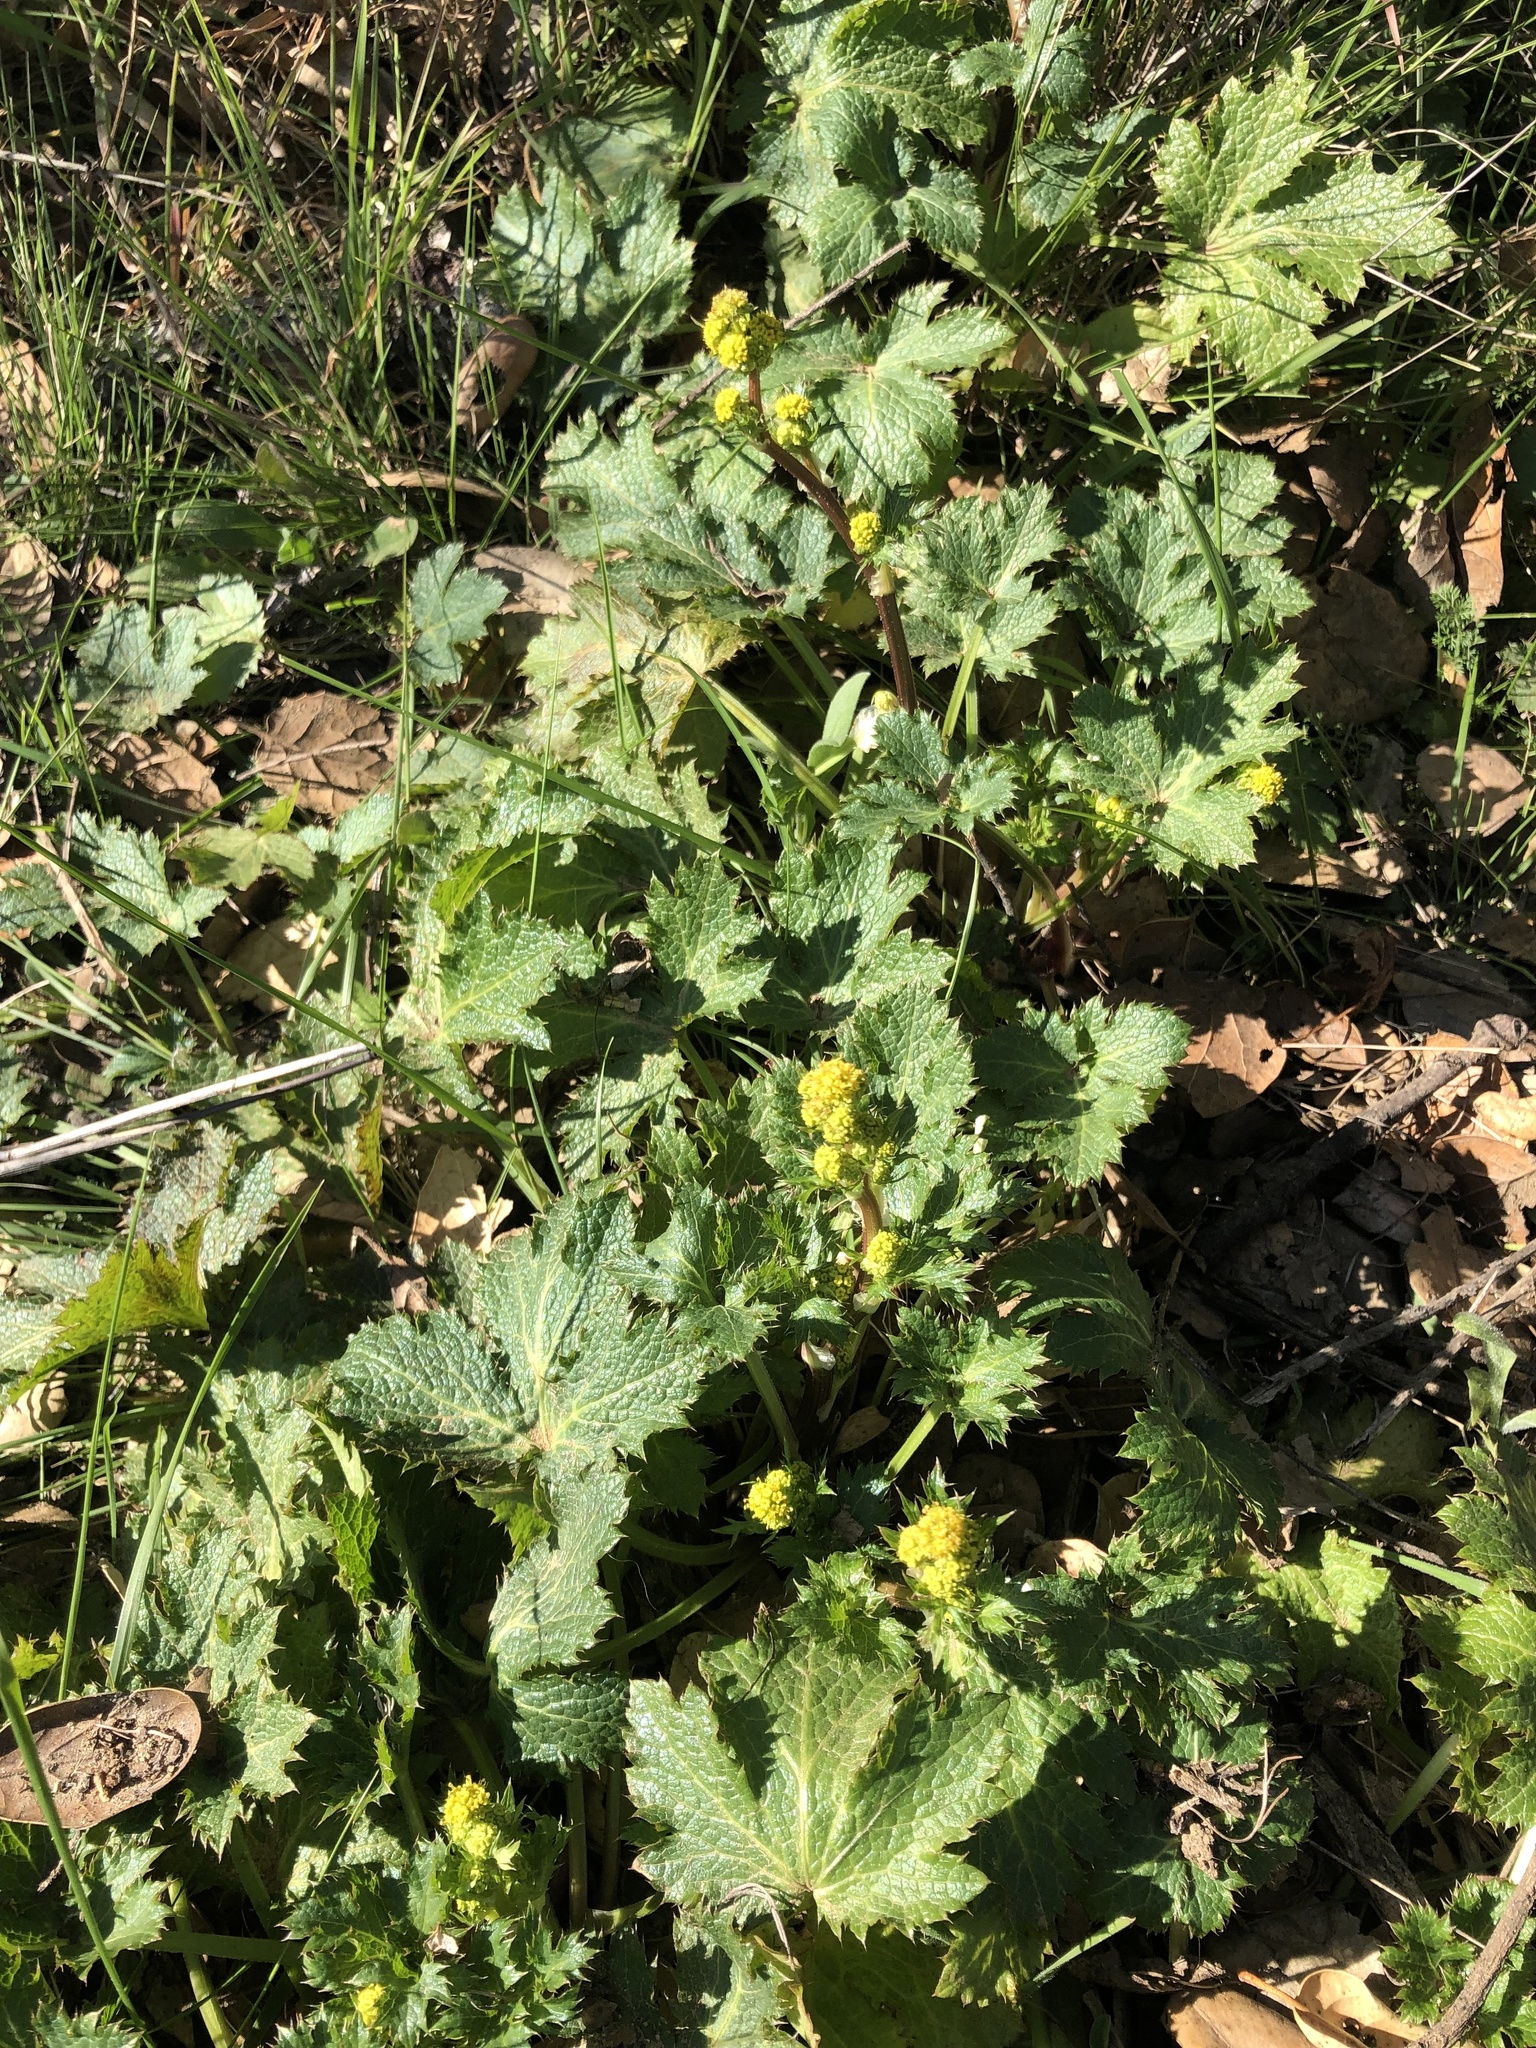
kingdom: Plantae
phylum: Tracheophyta
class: Magnoliopsida
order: Apiales
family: Apiaceae
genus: Sanicula
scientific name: Sanicula crassicaulis
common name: Western snakeroot
